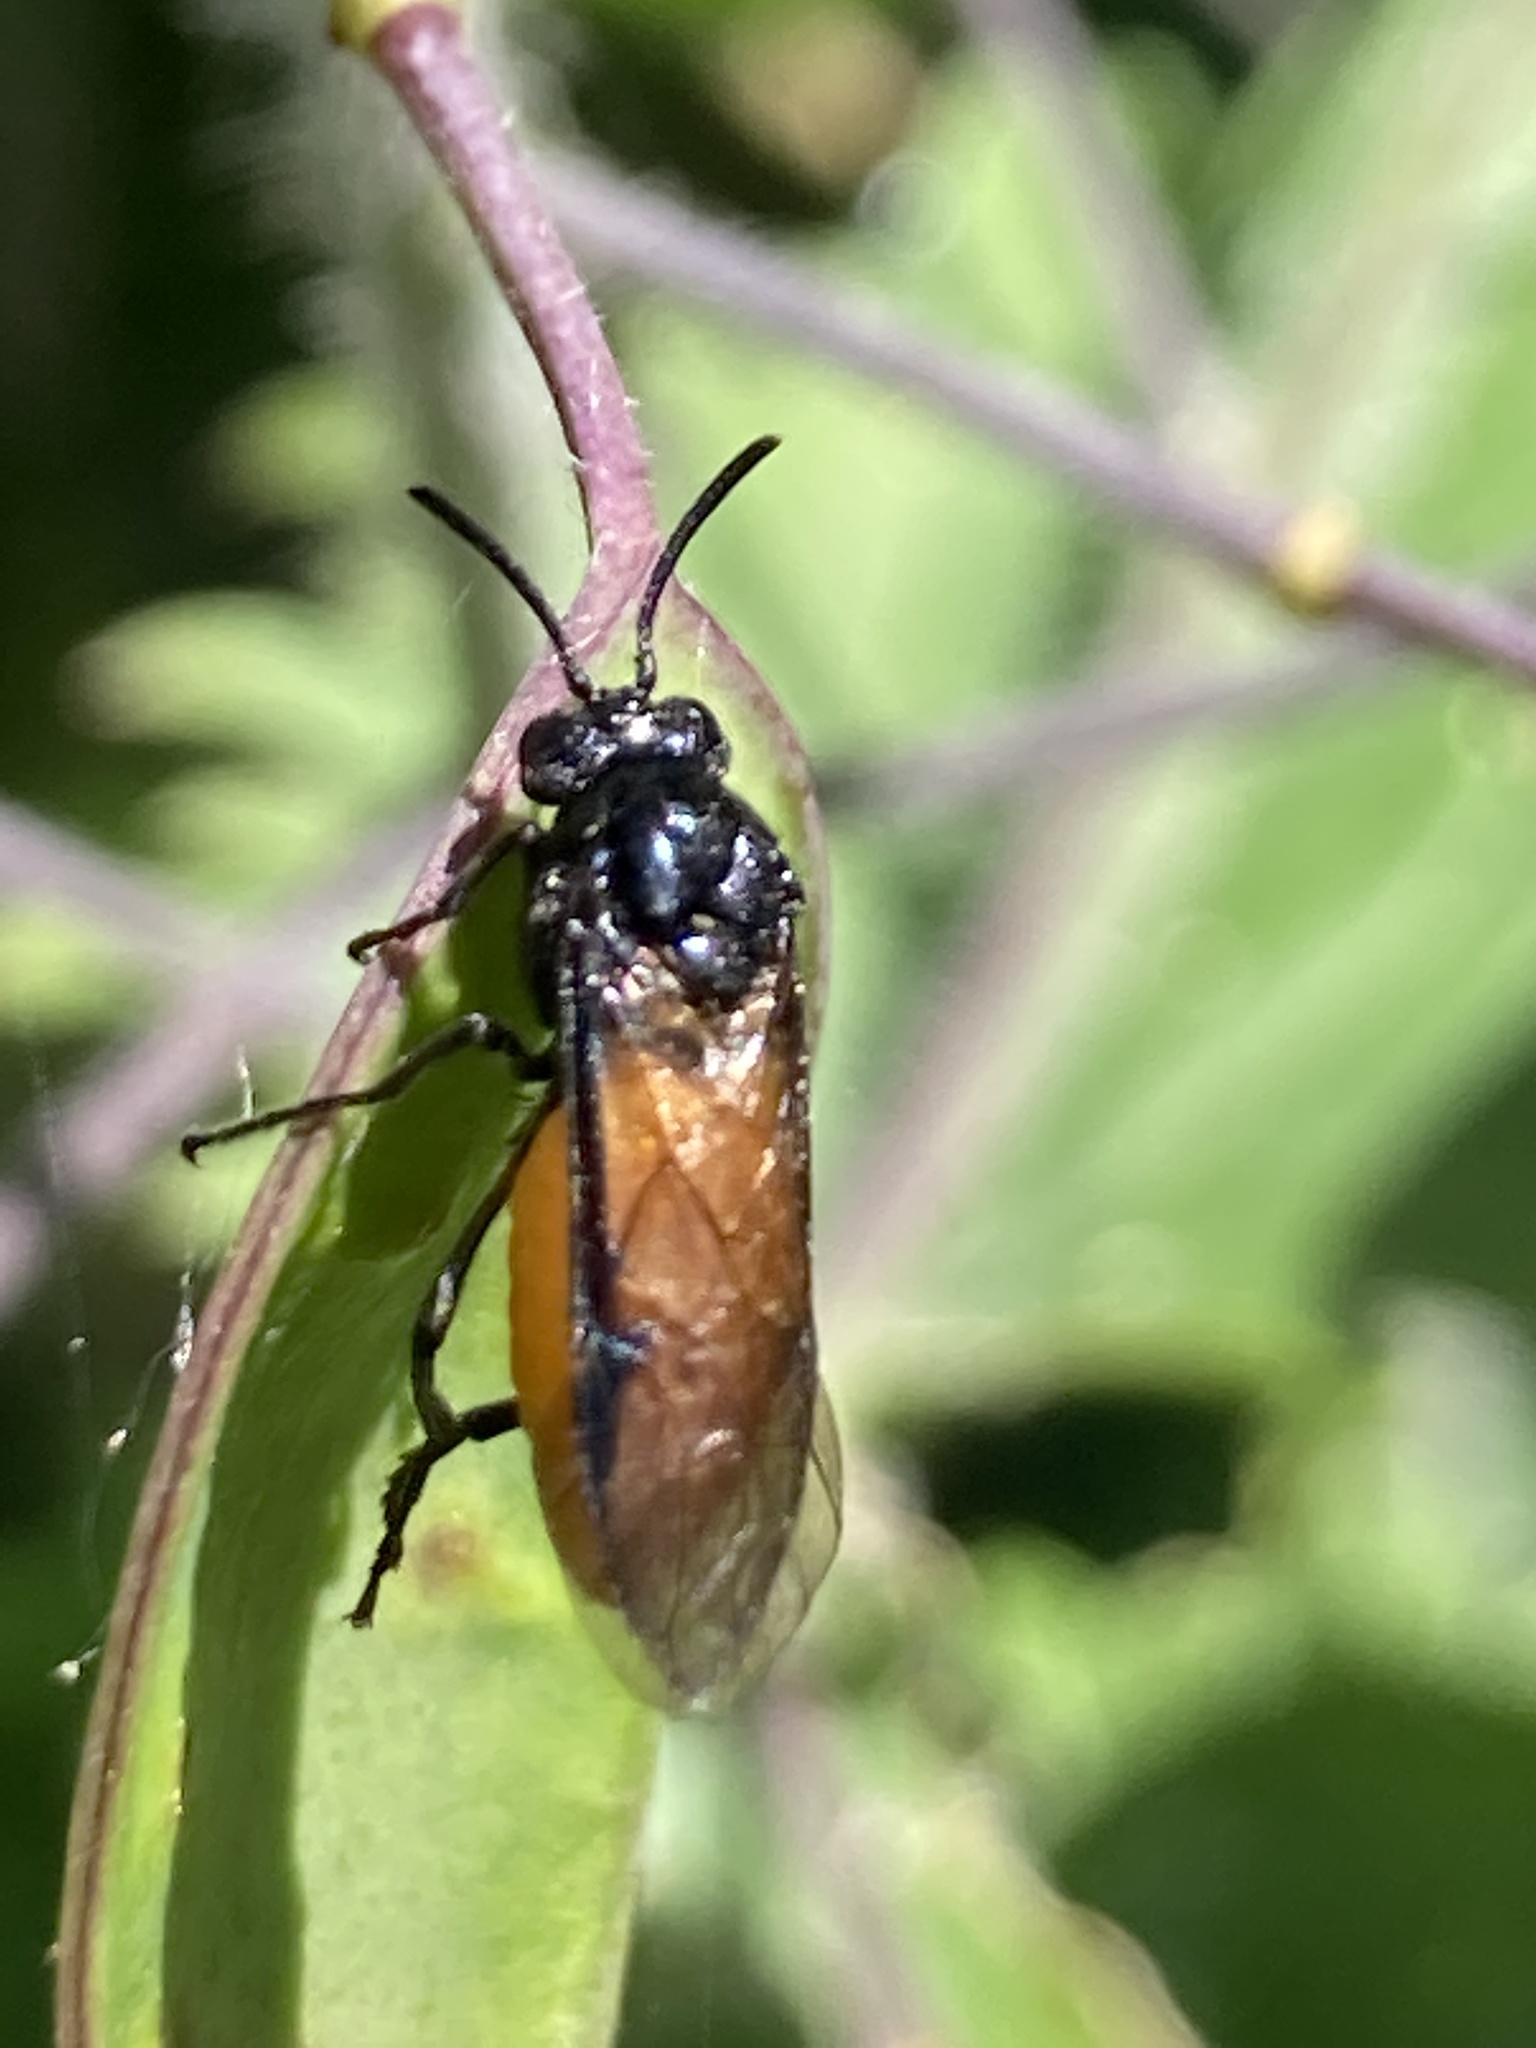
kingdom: Animalia
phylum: Arthropoda
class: Insecta
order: Hymenoptera
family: Argidae
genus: Arge
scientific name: Arge pagana
